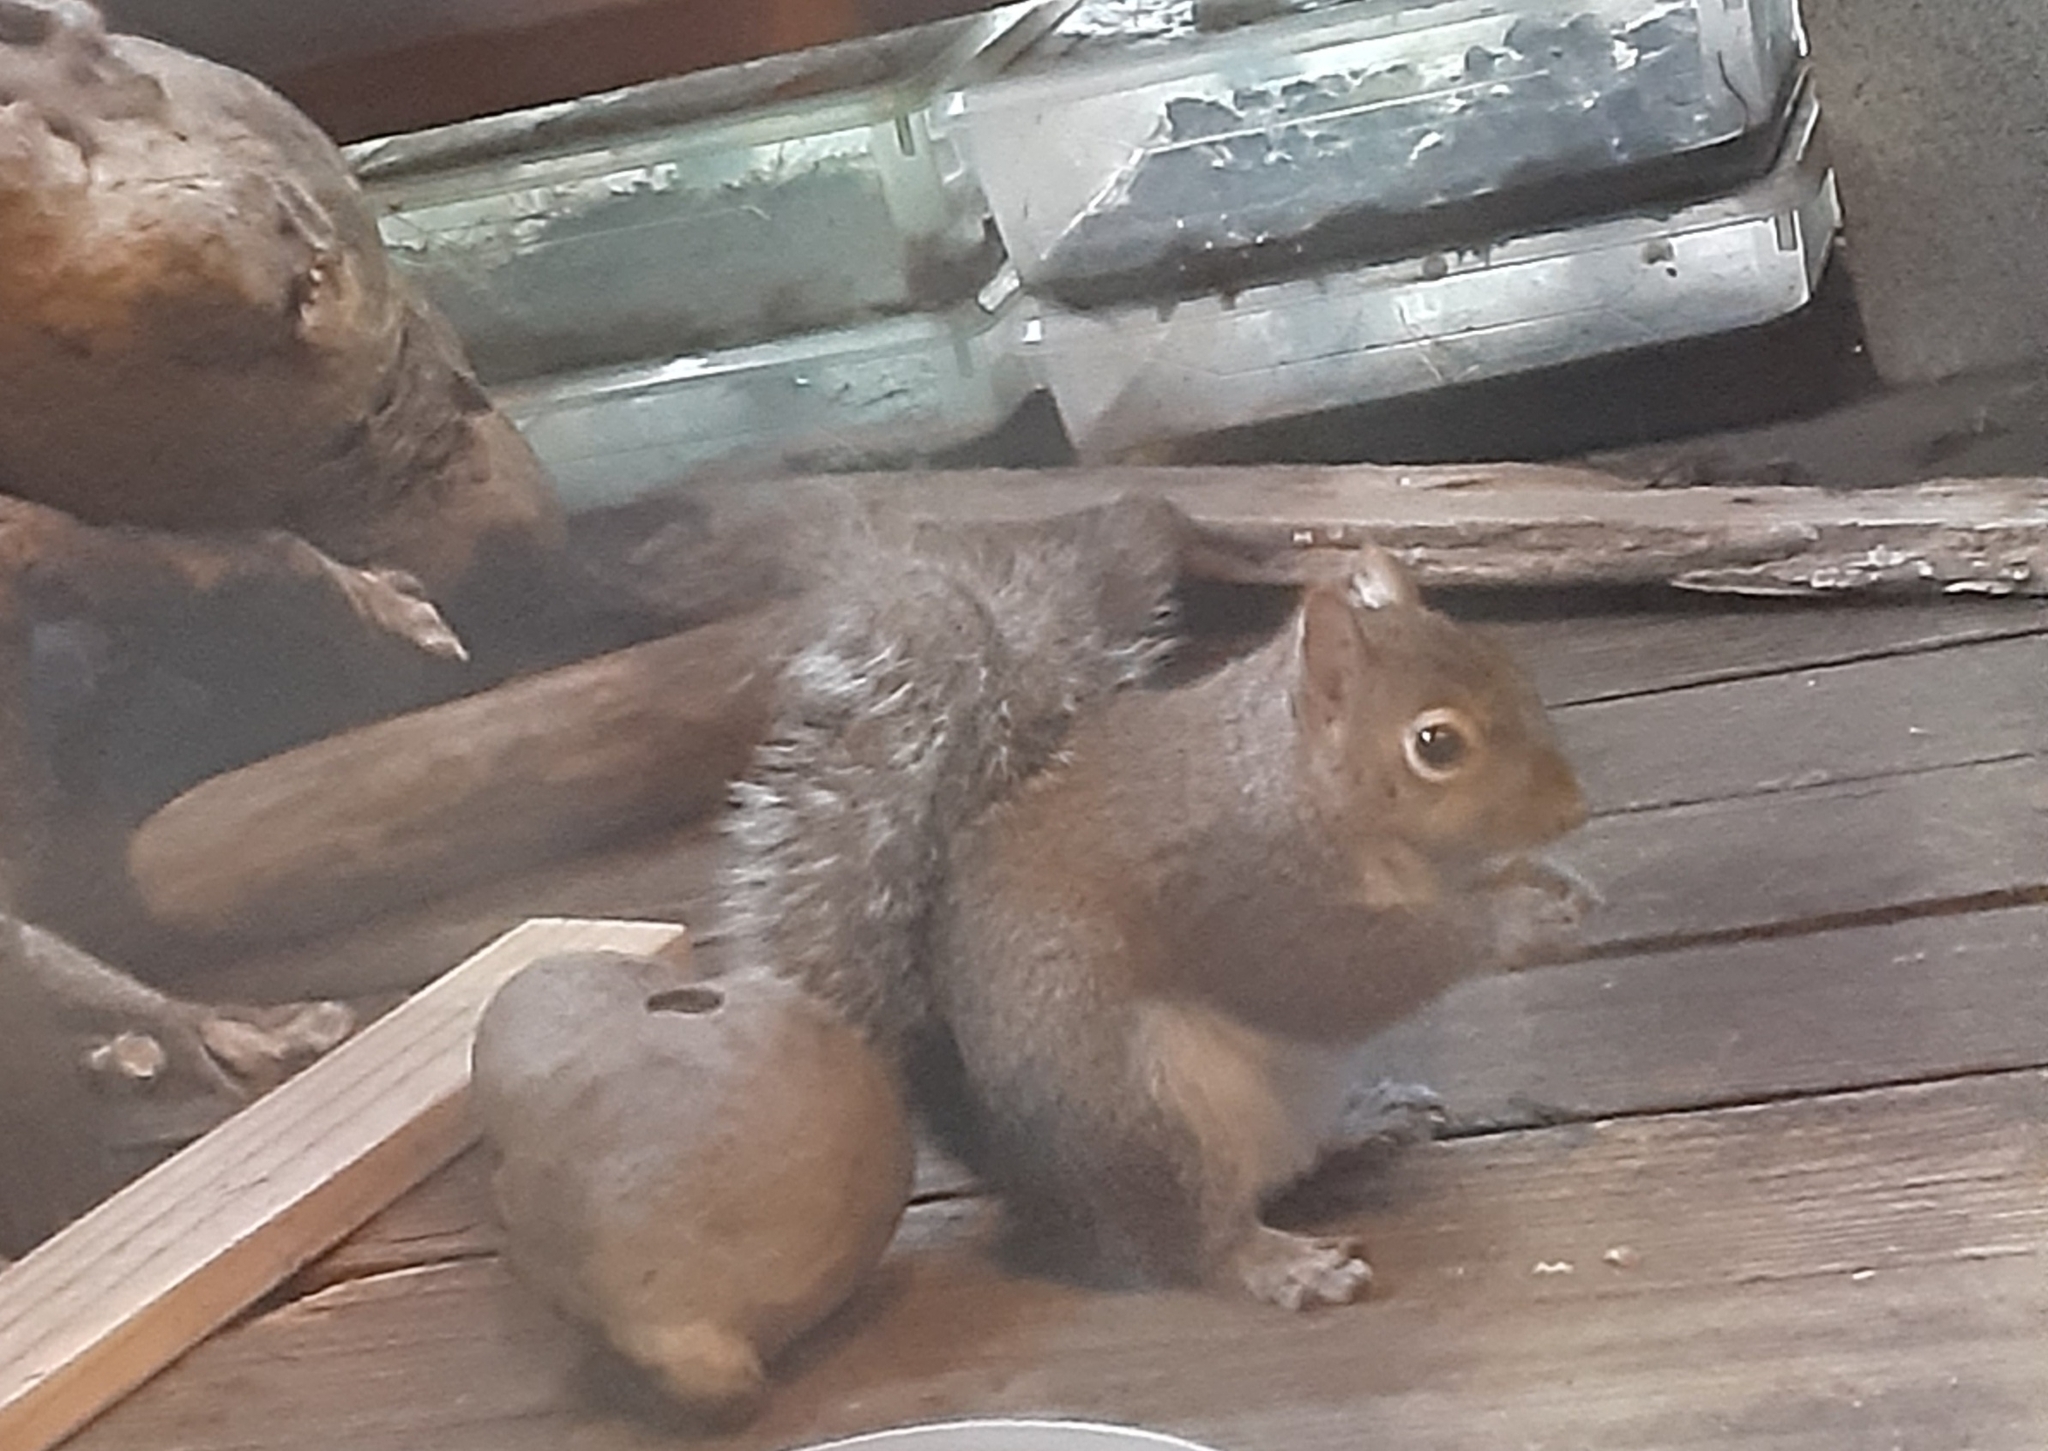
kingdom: Animalia
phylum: Chordata
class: Mammalia
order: Rodentia
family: Sciuridae
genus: Sciurus
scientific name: Sciurus carolinensis
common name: Eastern gray squirrel
